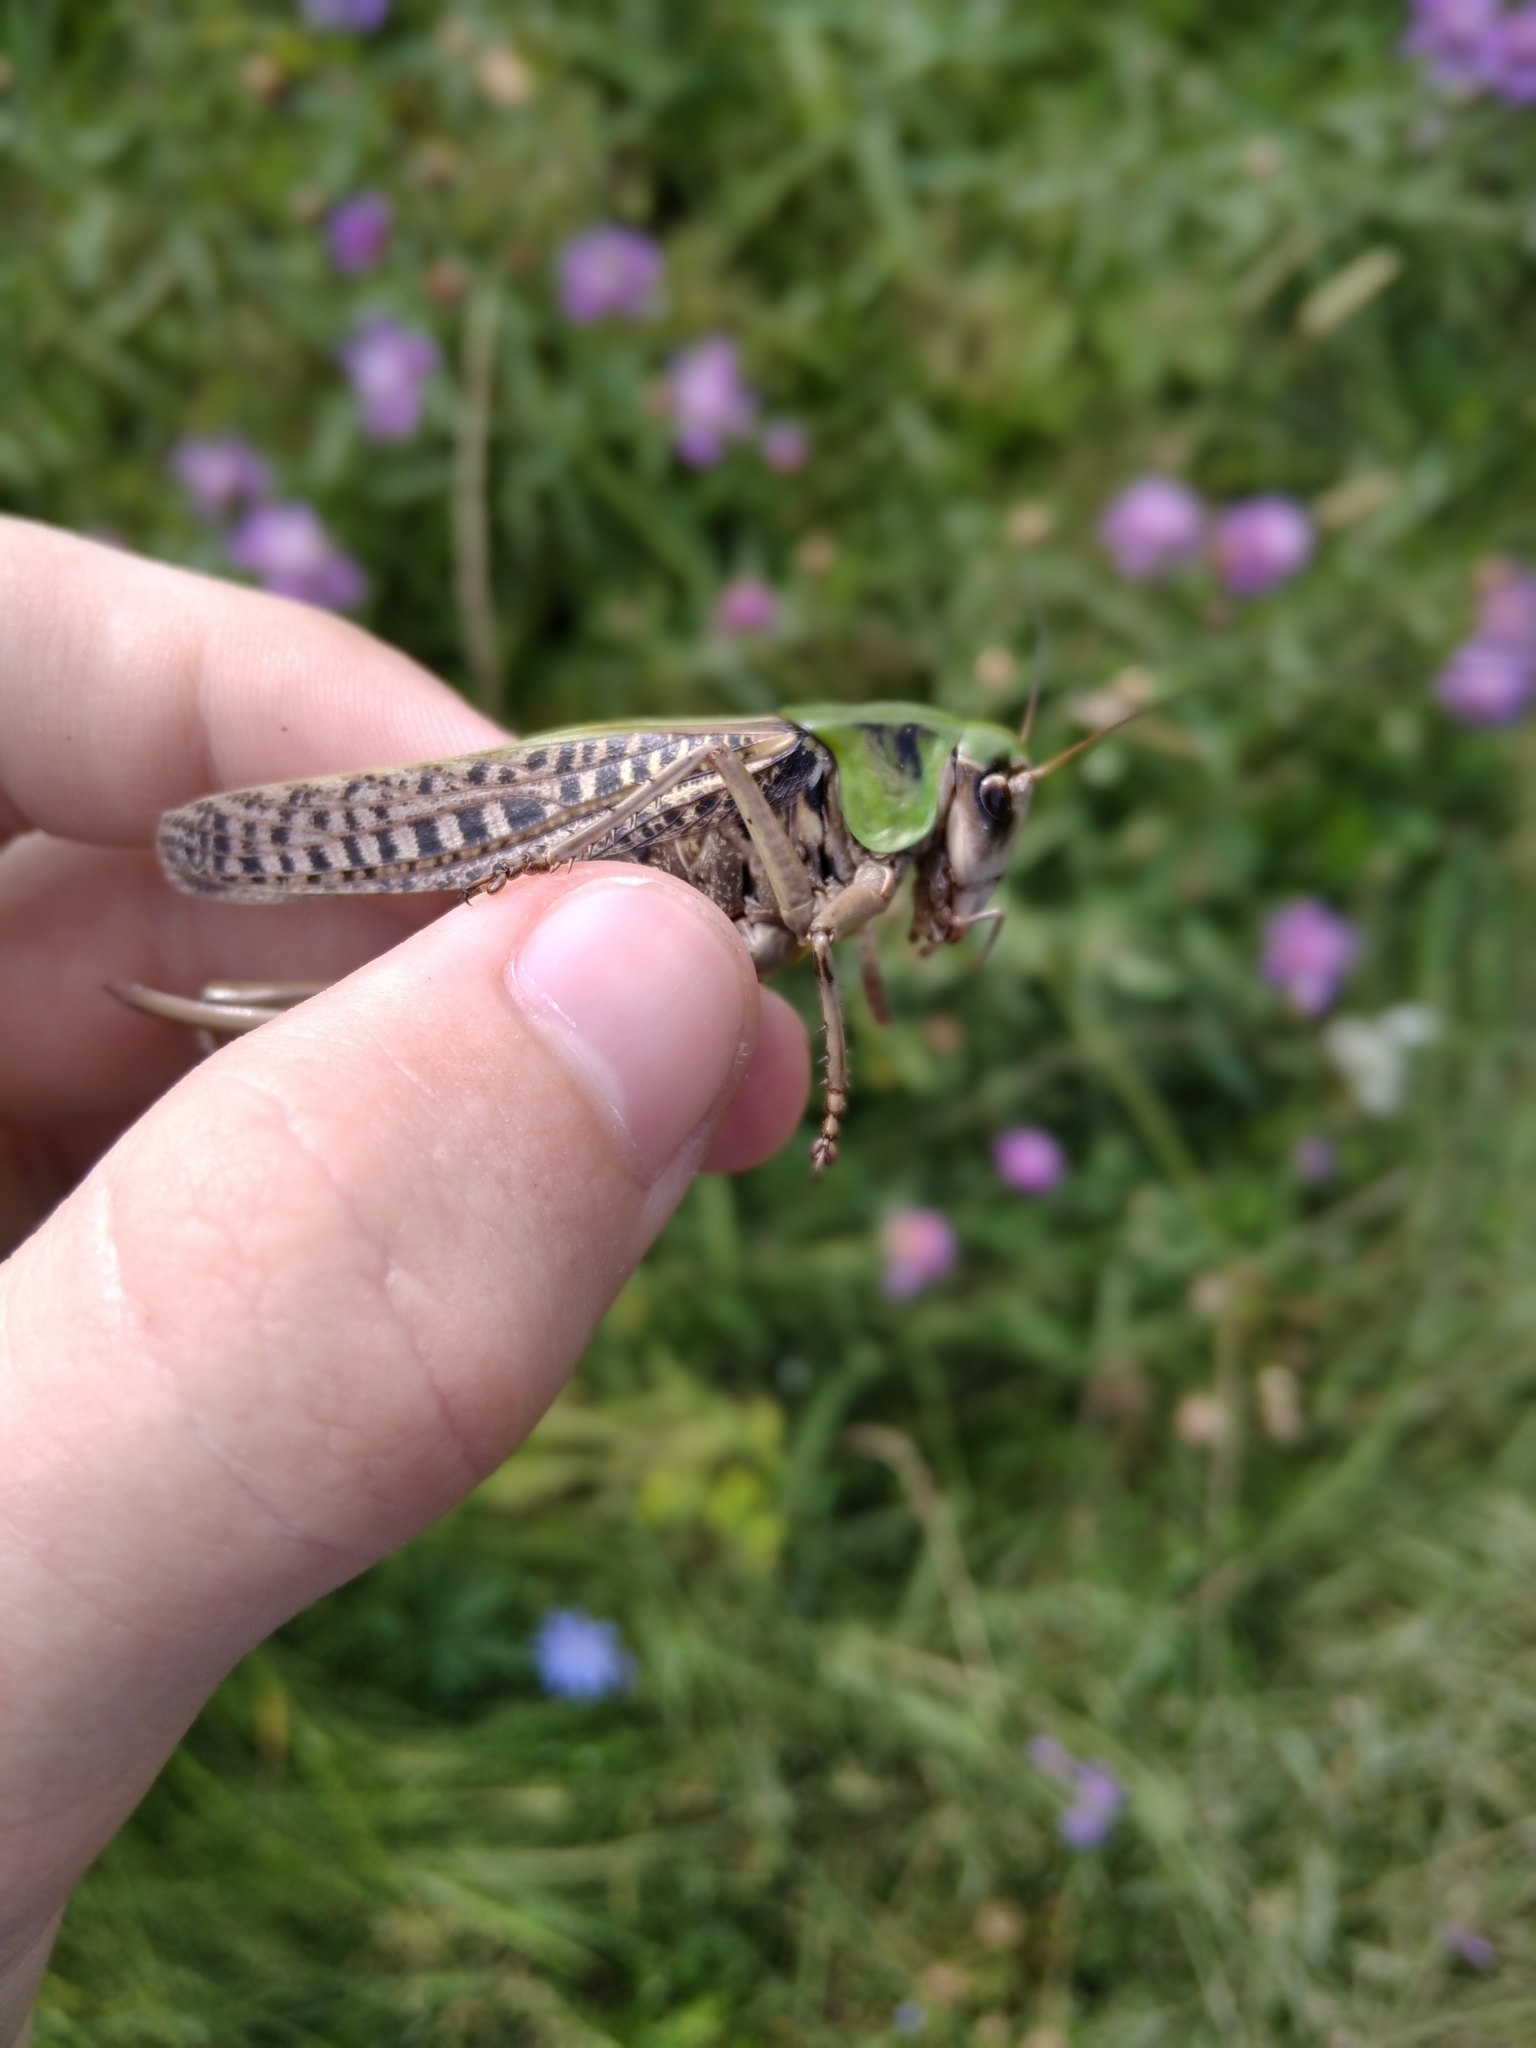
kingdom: Animalia
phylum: Arthropoda
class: Insecta
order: Orthoptera
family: Tettigoniidae
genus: Decticus
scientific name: Decticus verrucivorus
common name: Wart-biter
